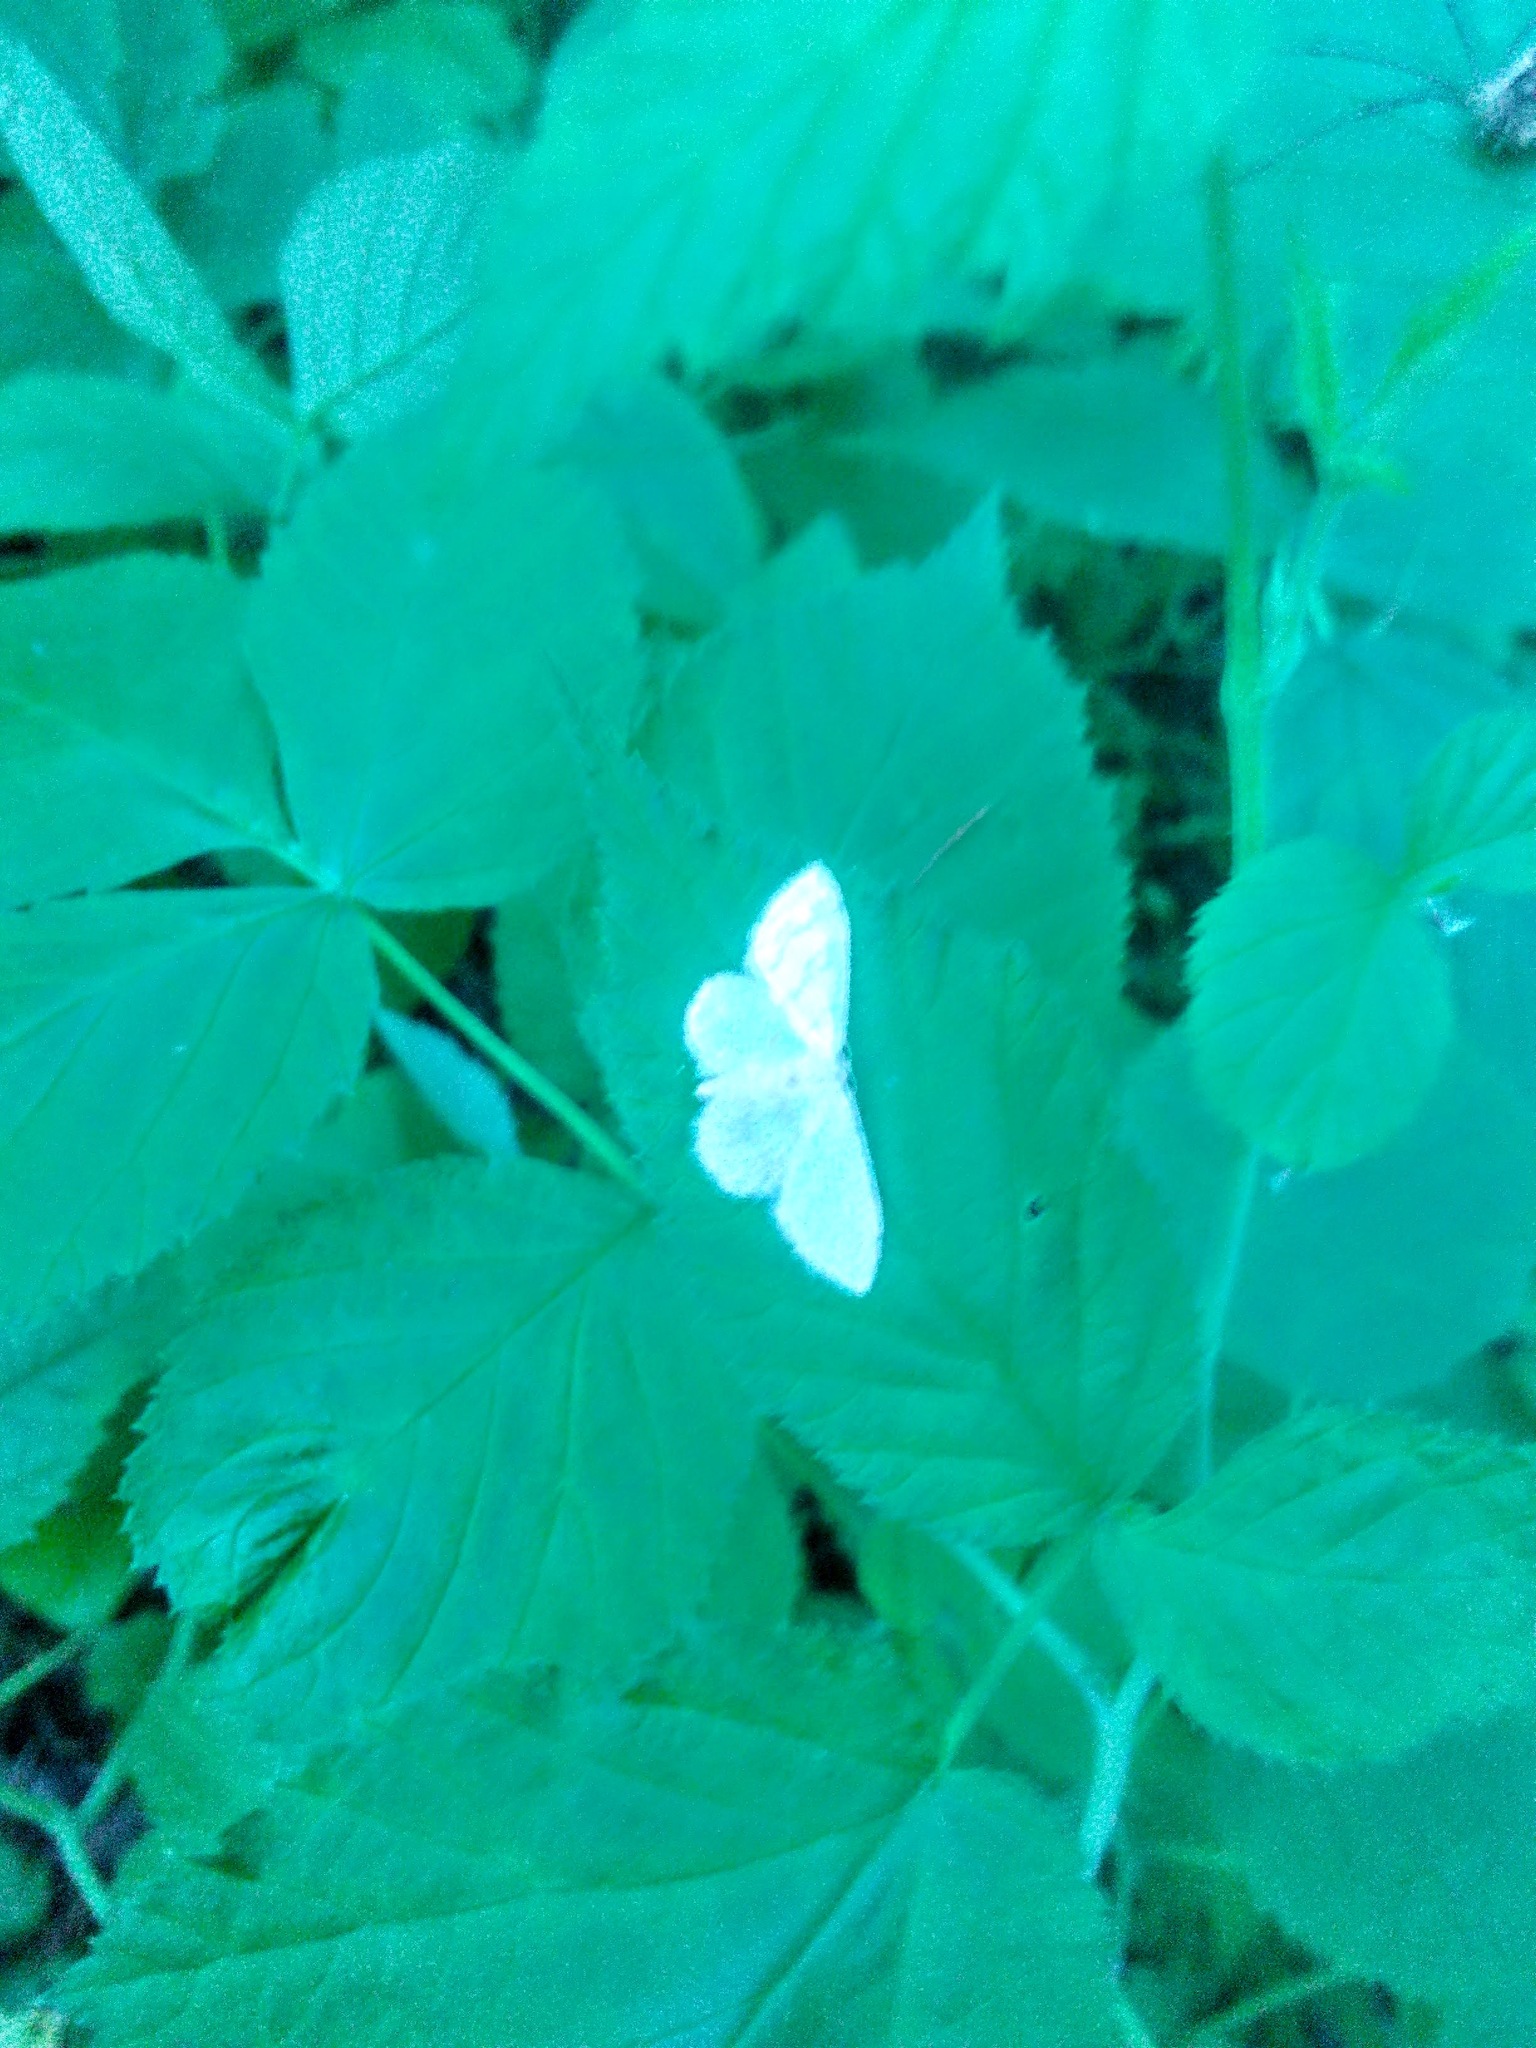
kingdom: Animalia
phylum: Arthropoda
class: Insecta
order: Lepidoptera
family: Geometridae
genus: Scotopteryx
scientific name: Scotopteryx chenopodiata
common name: Shaded broad-bar
